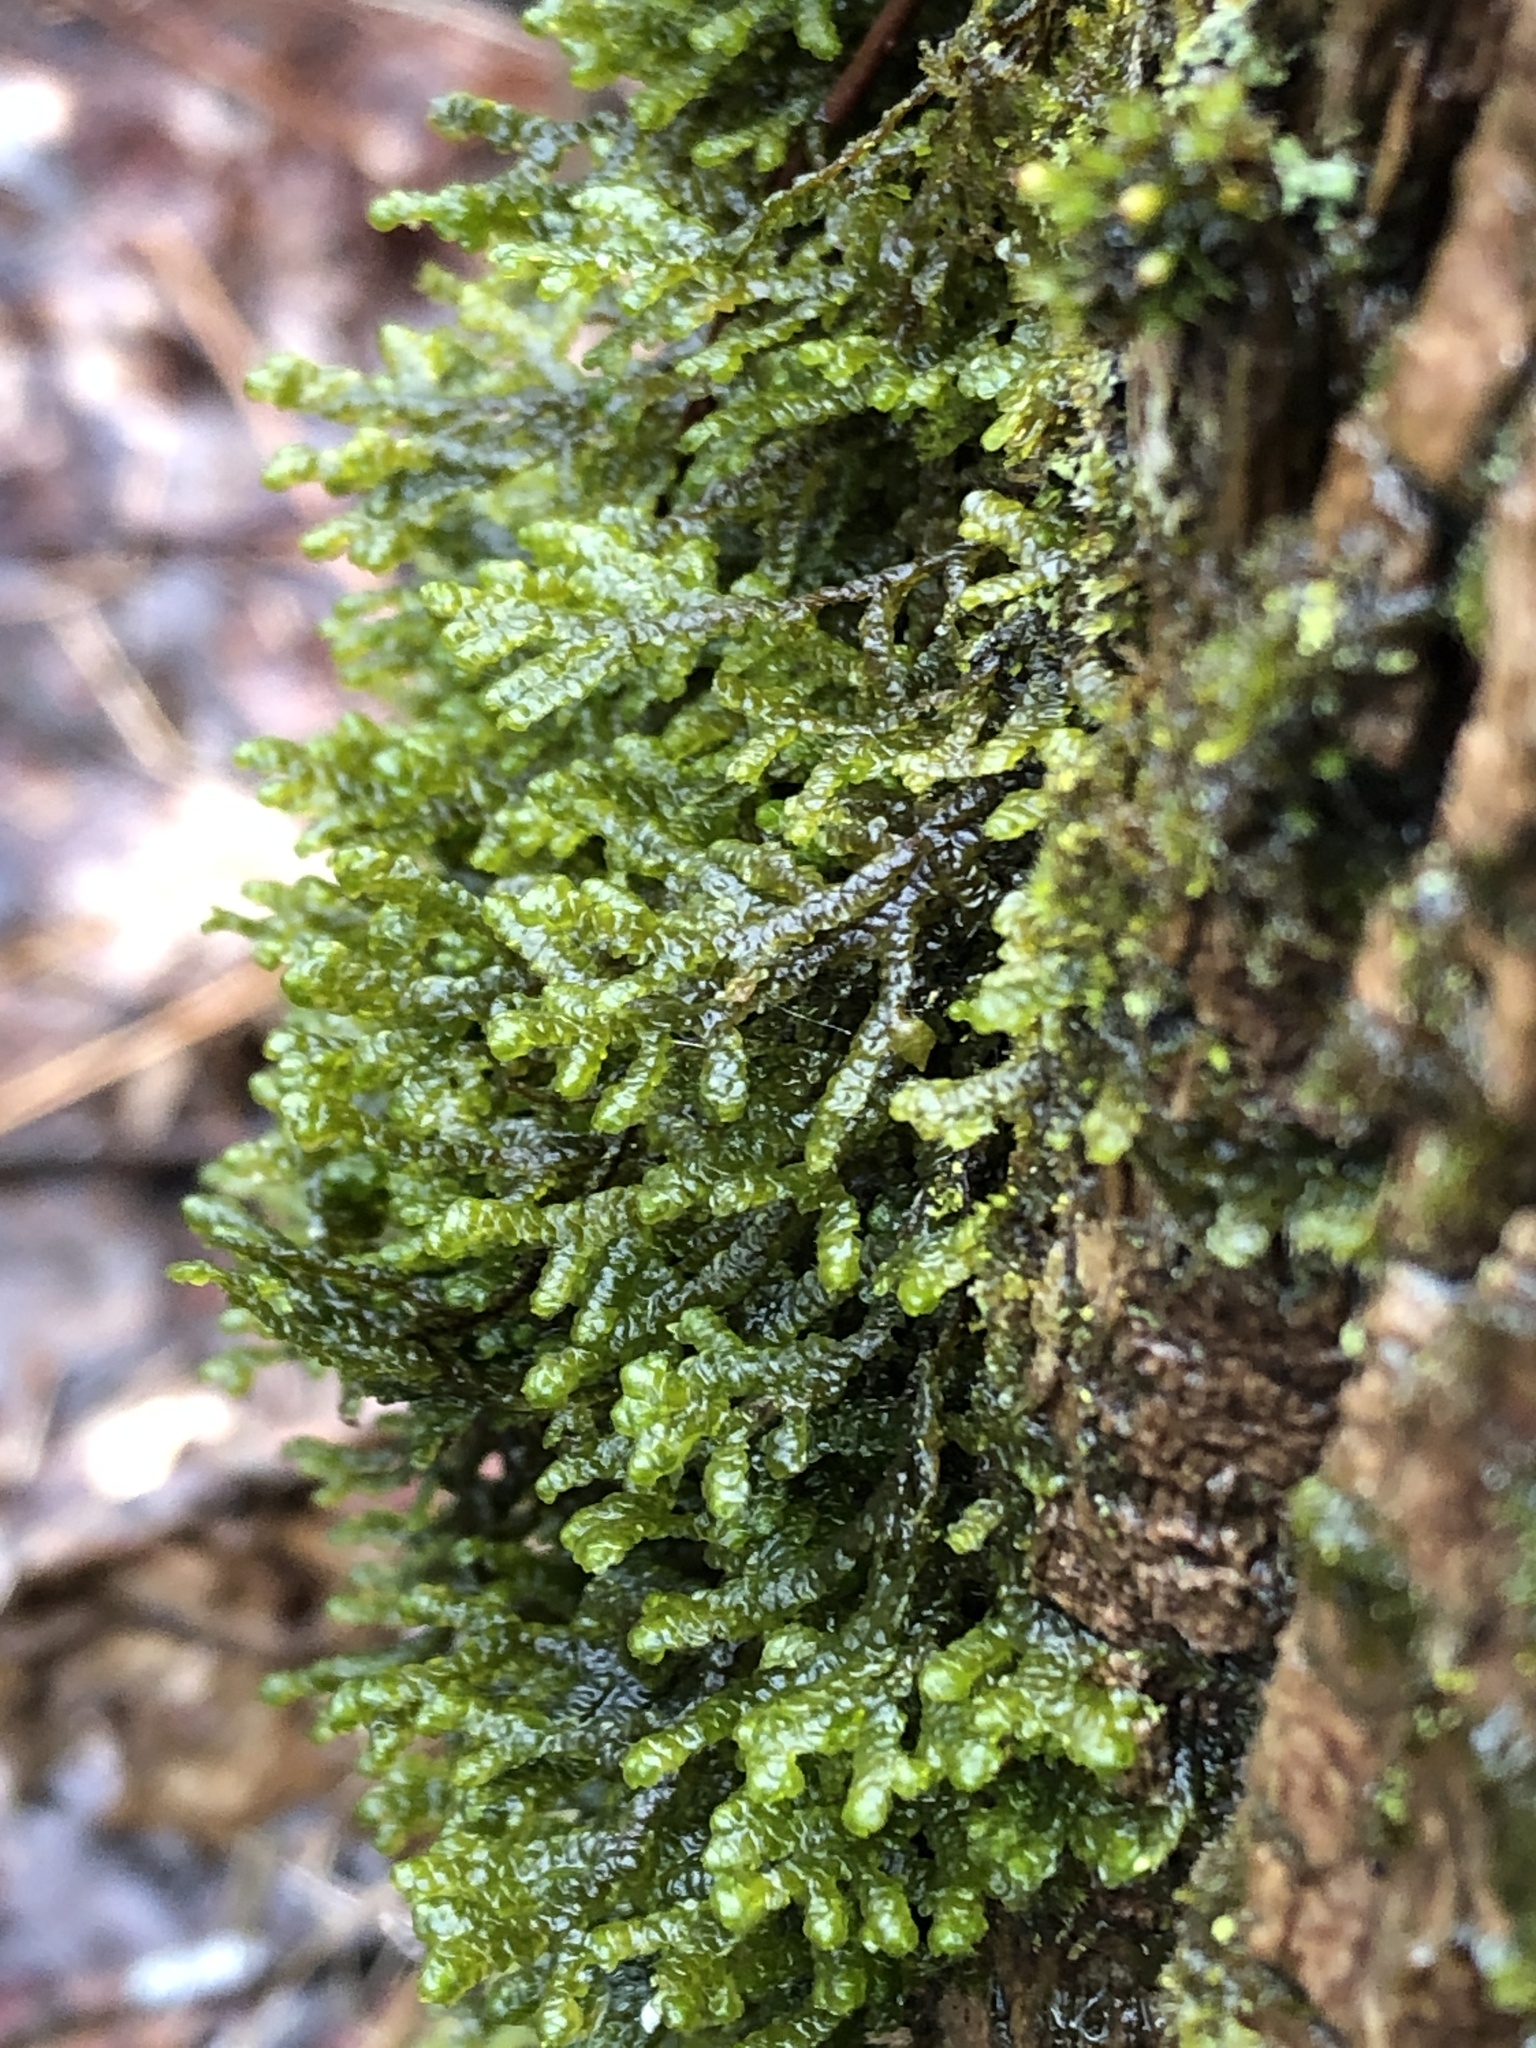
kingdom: Plantae
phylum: Marchantiophyta
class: Jungermanniopsida
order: Porellales
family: Porellaceae
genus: Porella
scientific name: Porella platyphylla
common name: Wall scalewort
